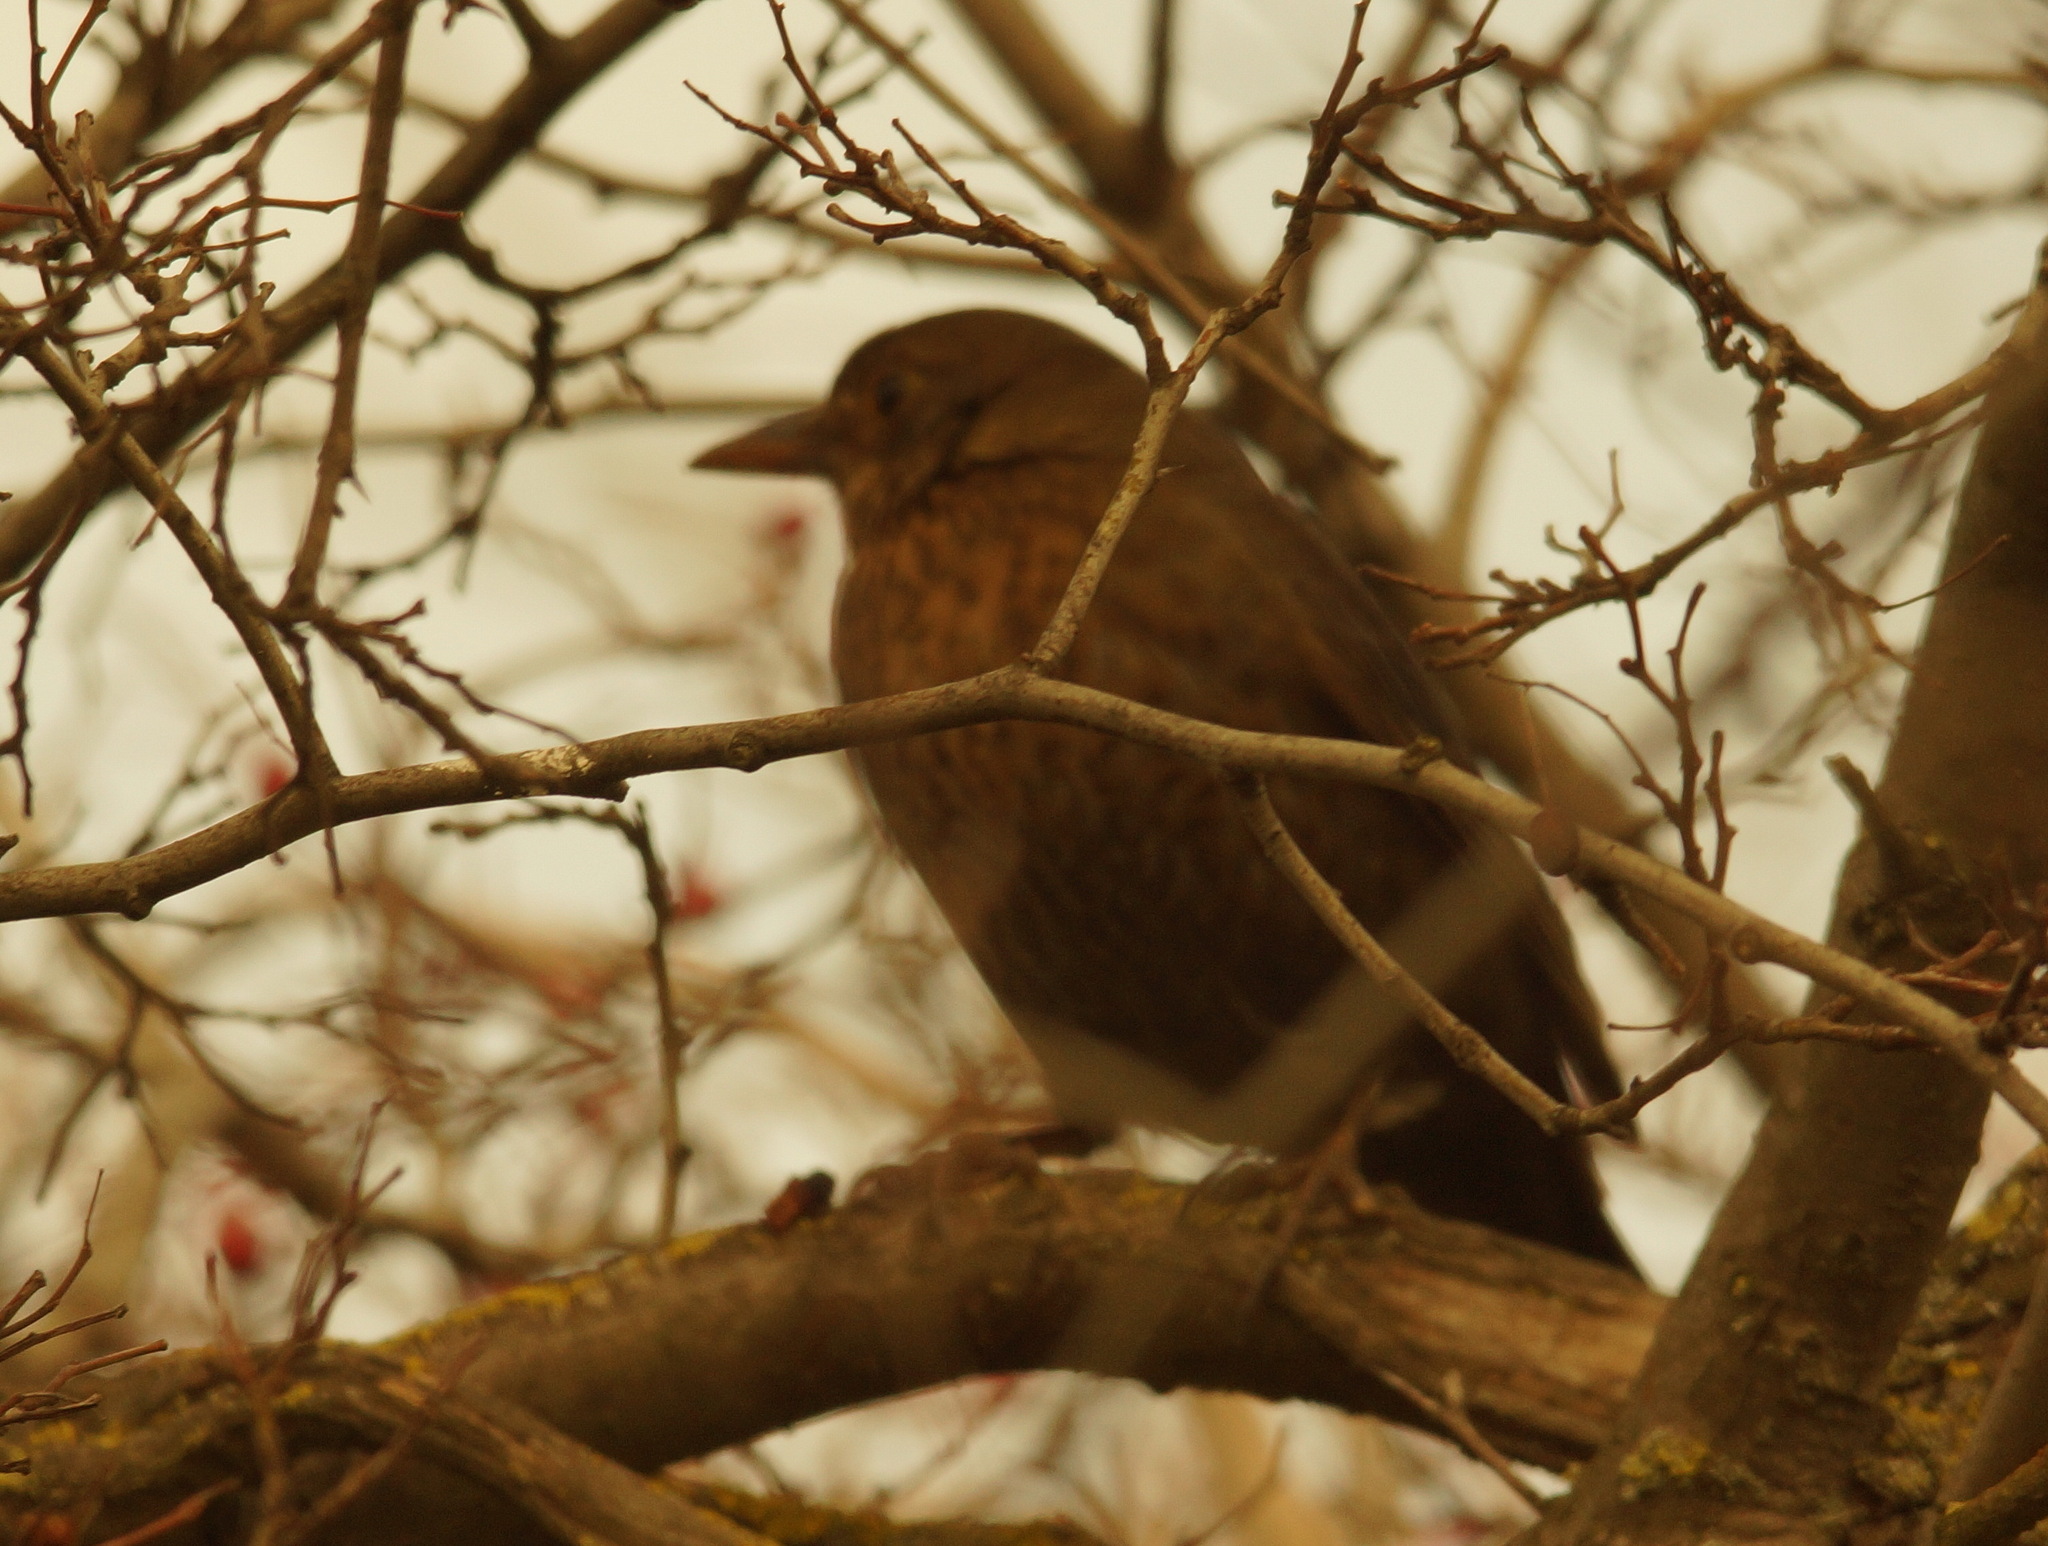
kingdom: Animalia
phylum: Chordata
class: Aves
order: Passeriformes
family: Turdidae
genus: Turdus
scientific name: Turdus merula
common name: Common blackbird
